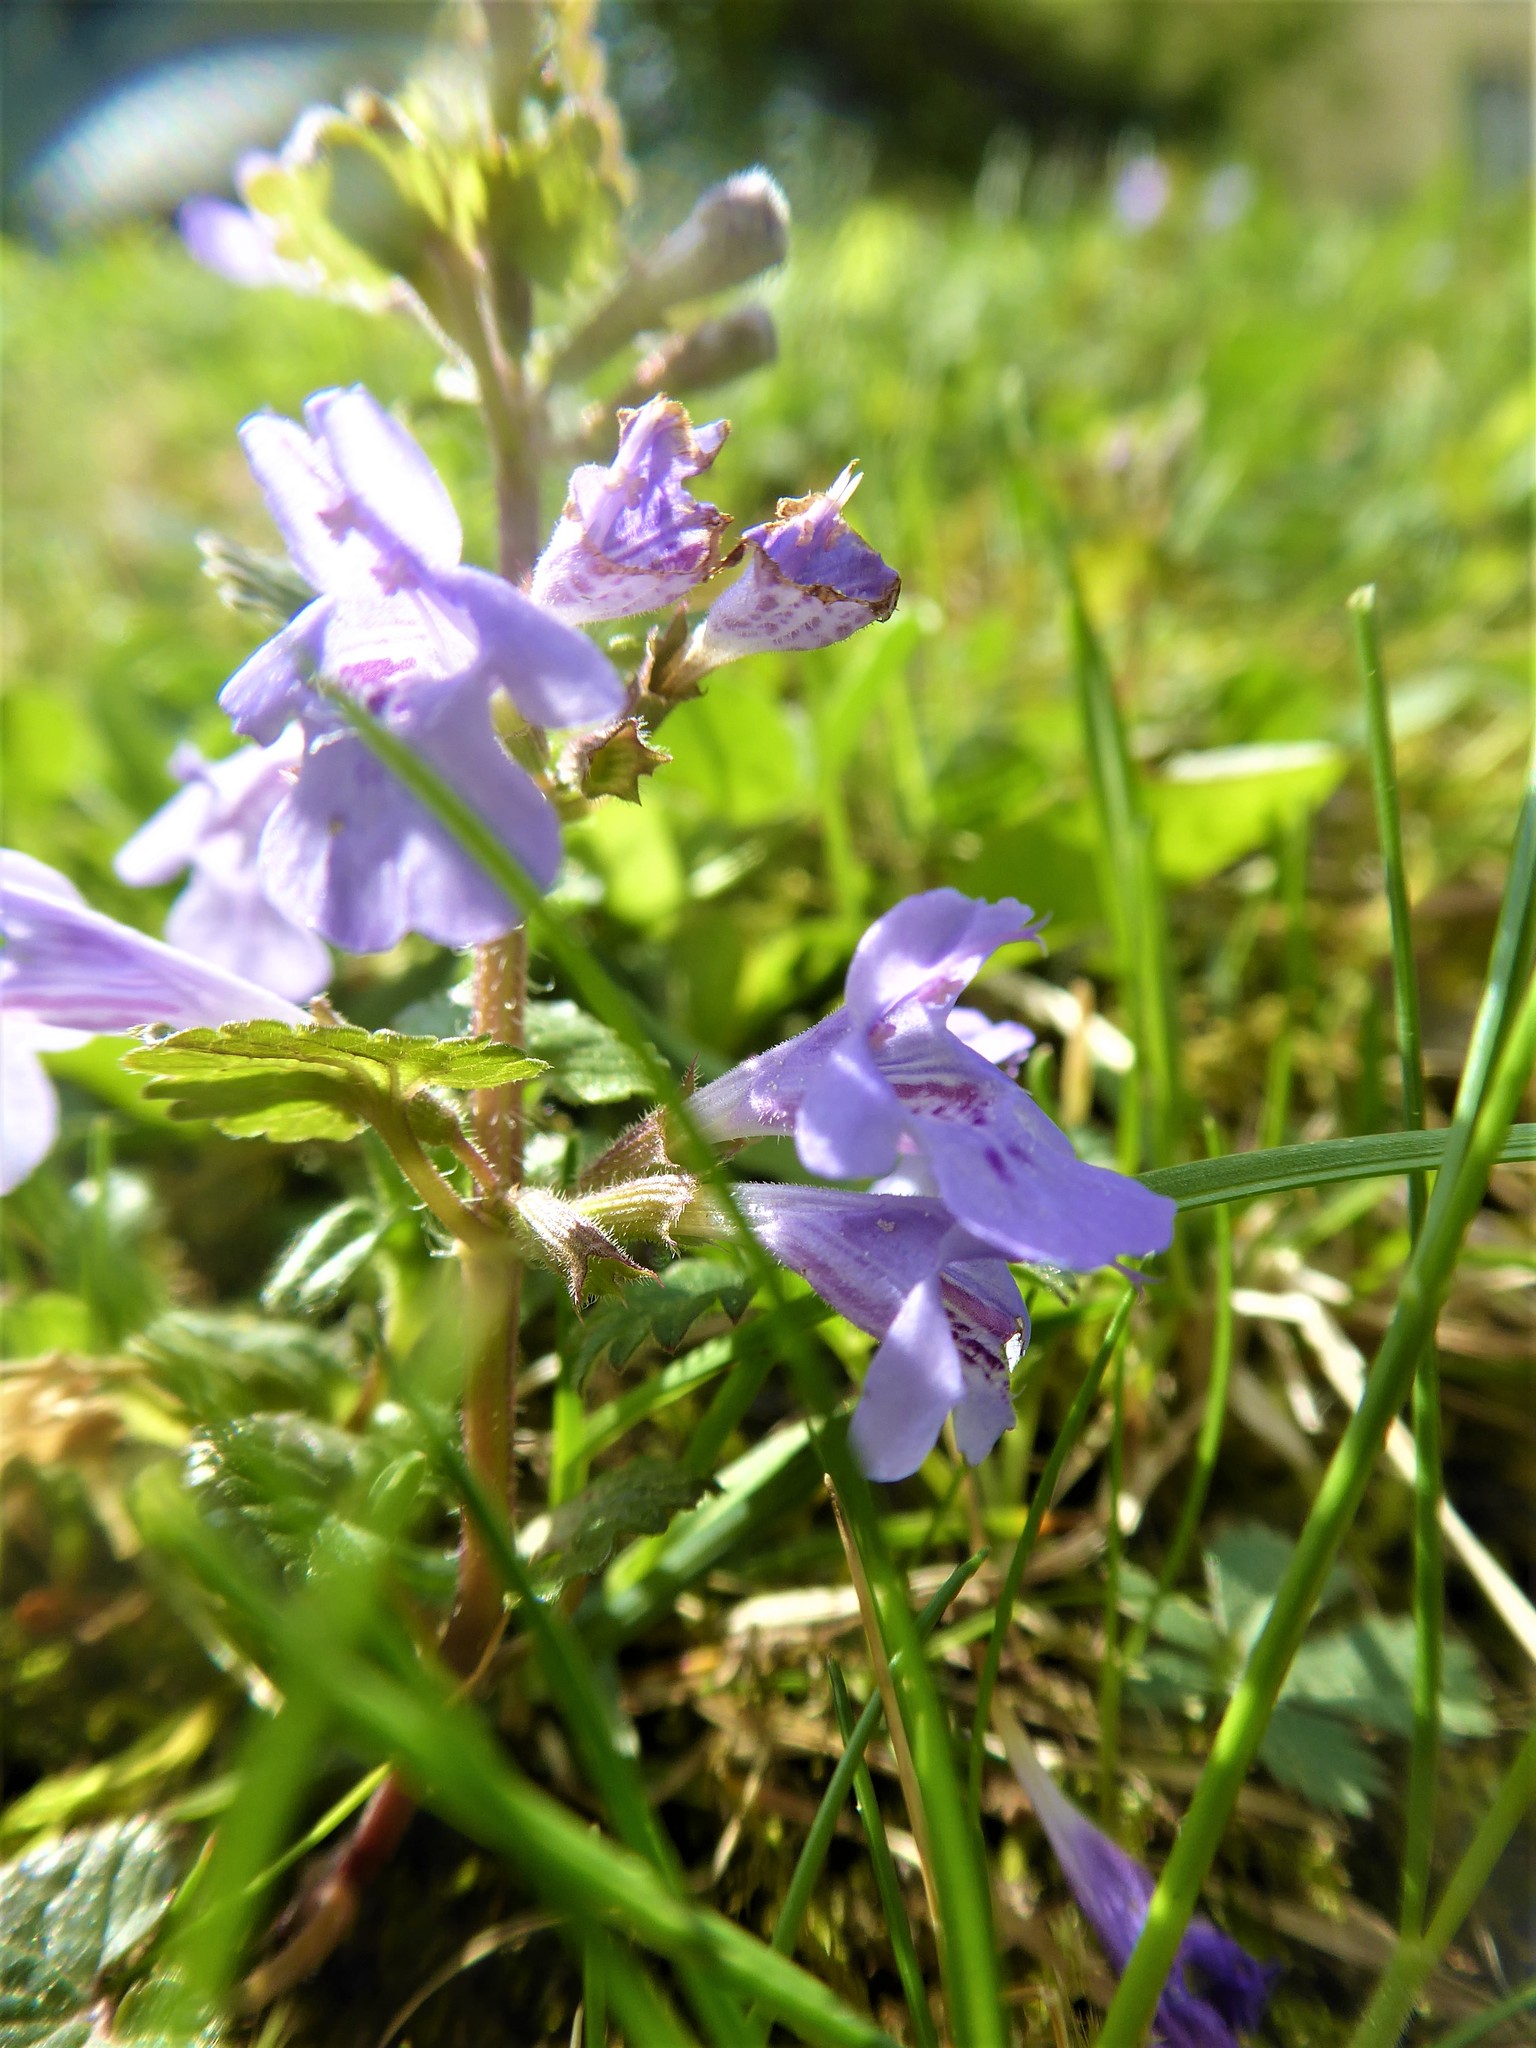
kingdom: Plantae
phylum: Tracheophyta
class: Magnoliopsida
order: Lamiales
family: Lamiaceae
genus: Glechoma
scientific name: Glechoma hederacea
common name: Ground ivy
